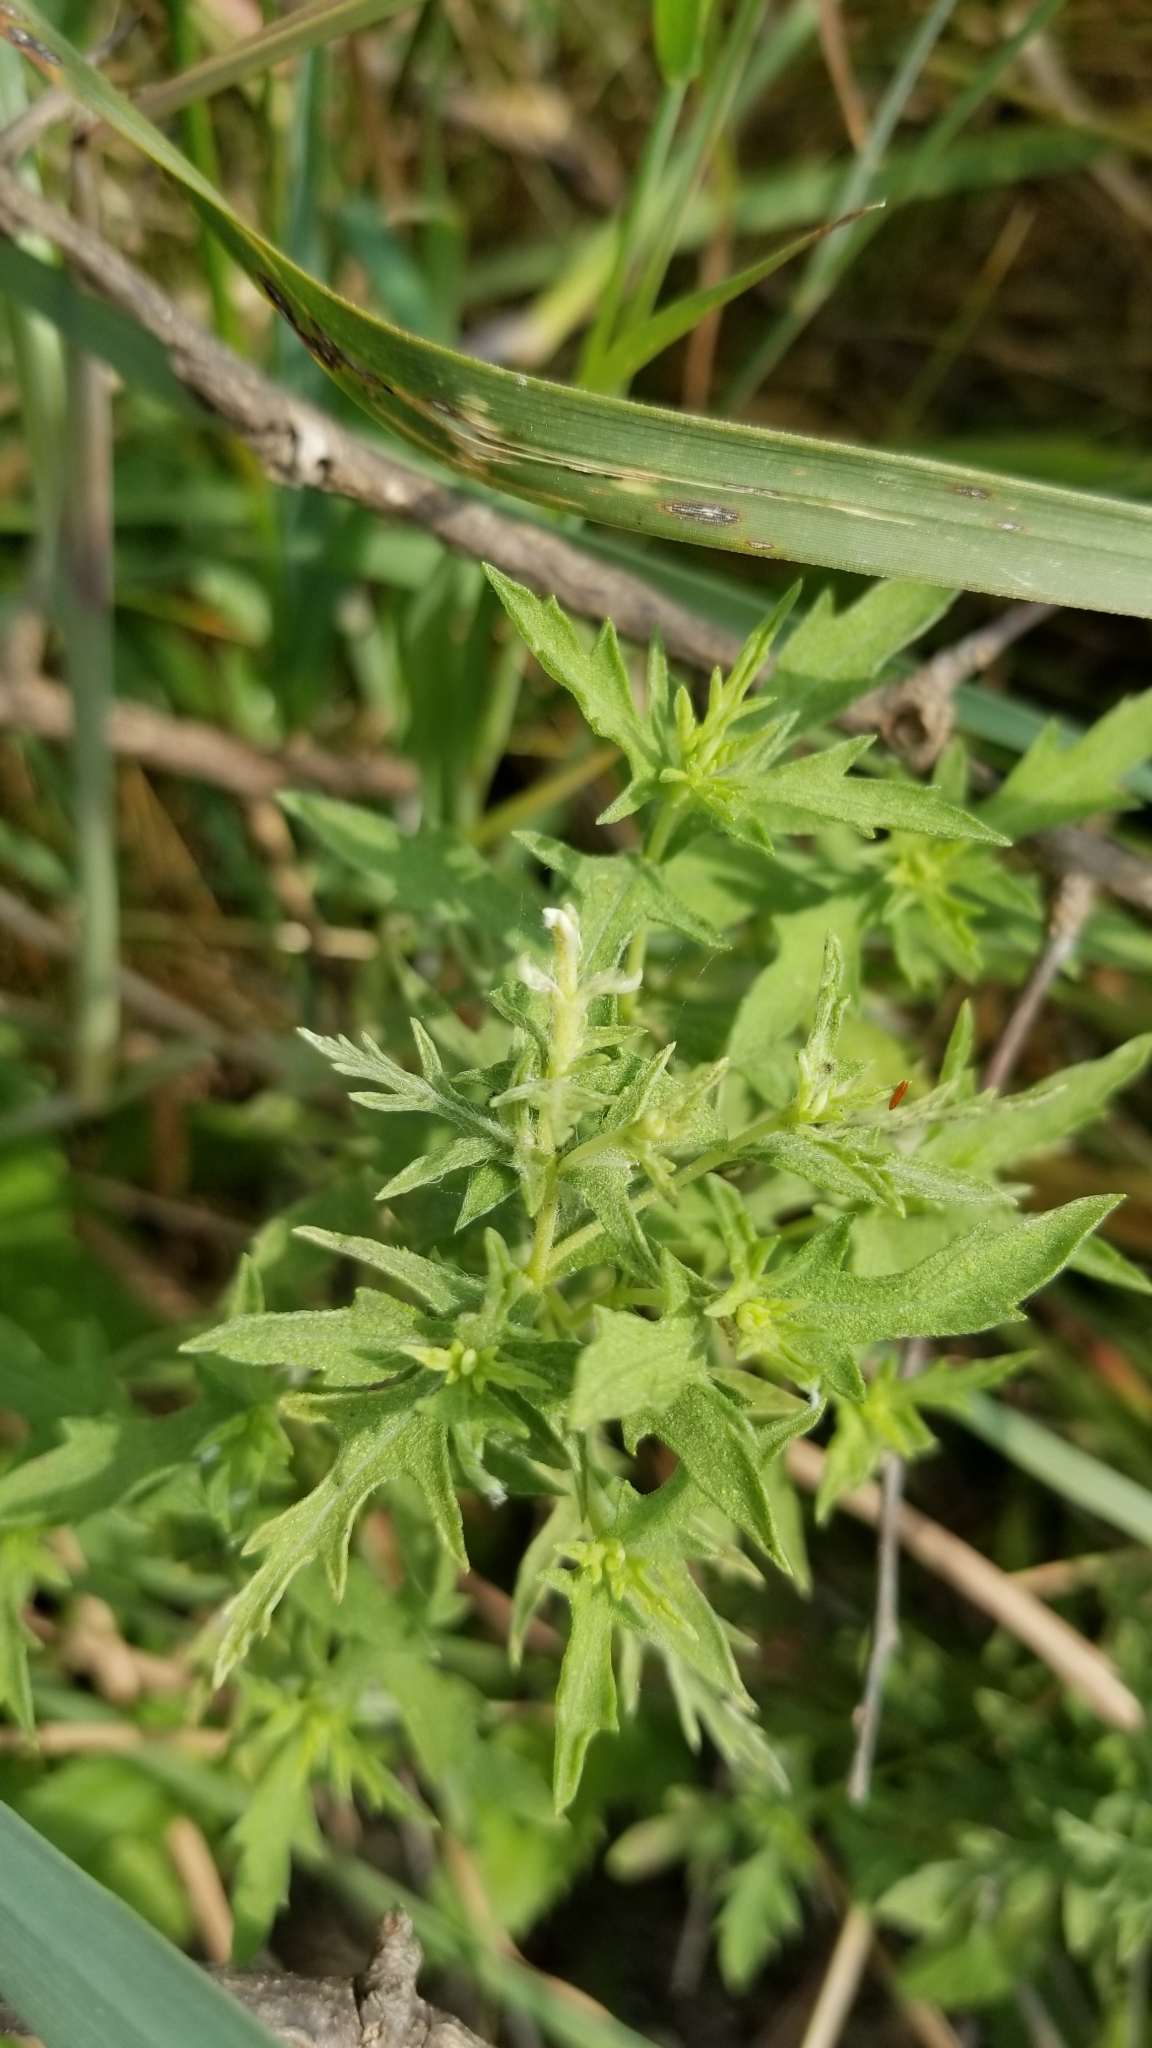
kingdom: Plantae
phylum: Tracheophyta
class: Magnoliopsida
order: Asterales
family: Asteraceae
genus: Ambrosia
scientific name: Ambrosia psilostachya
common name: Perennial ragweed
